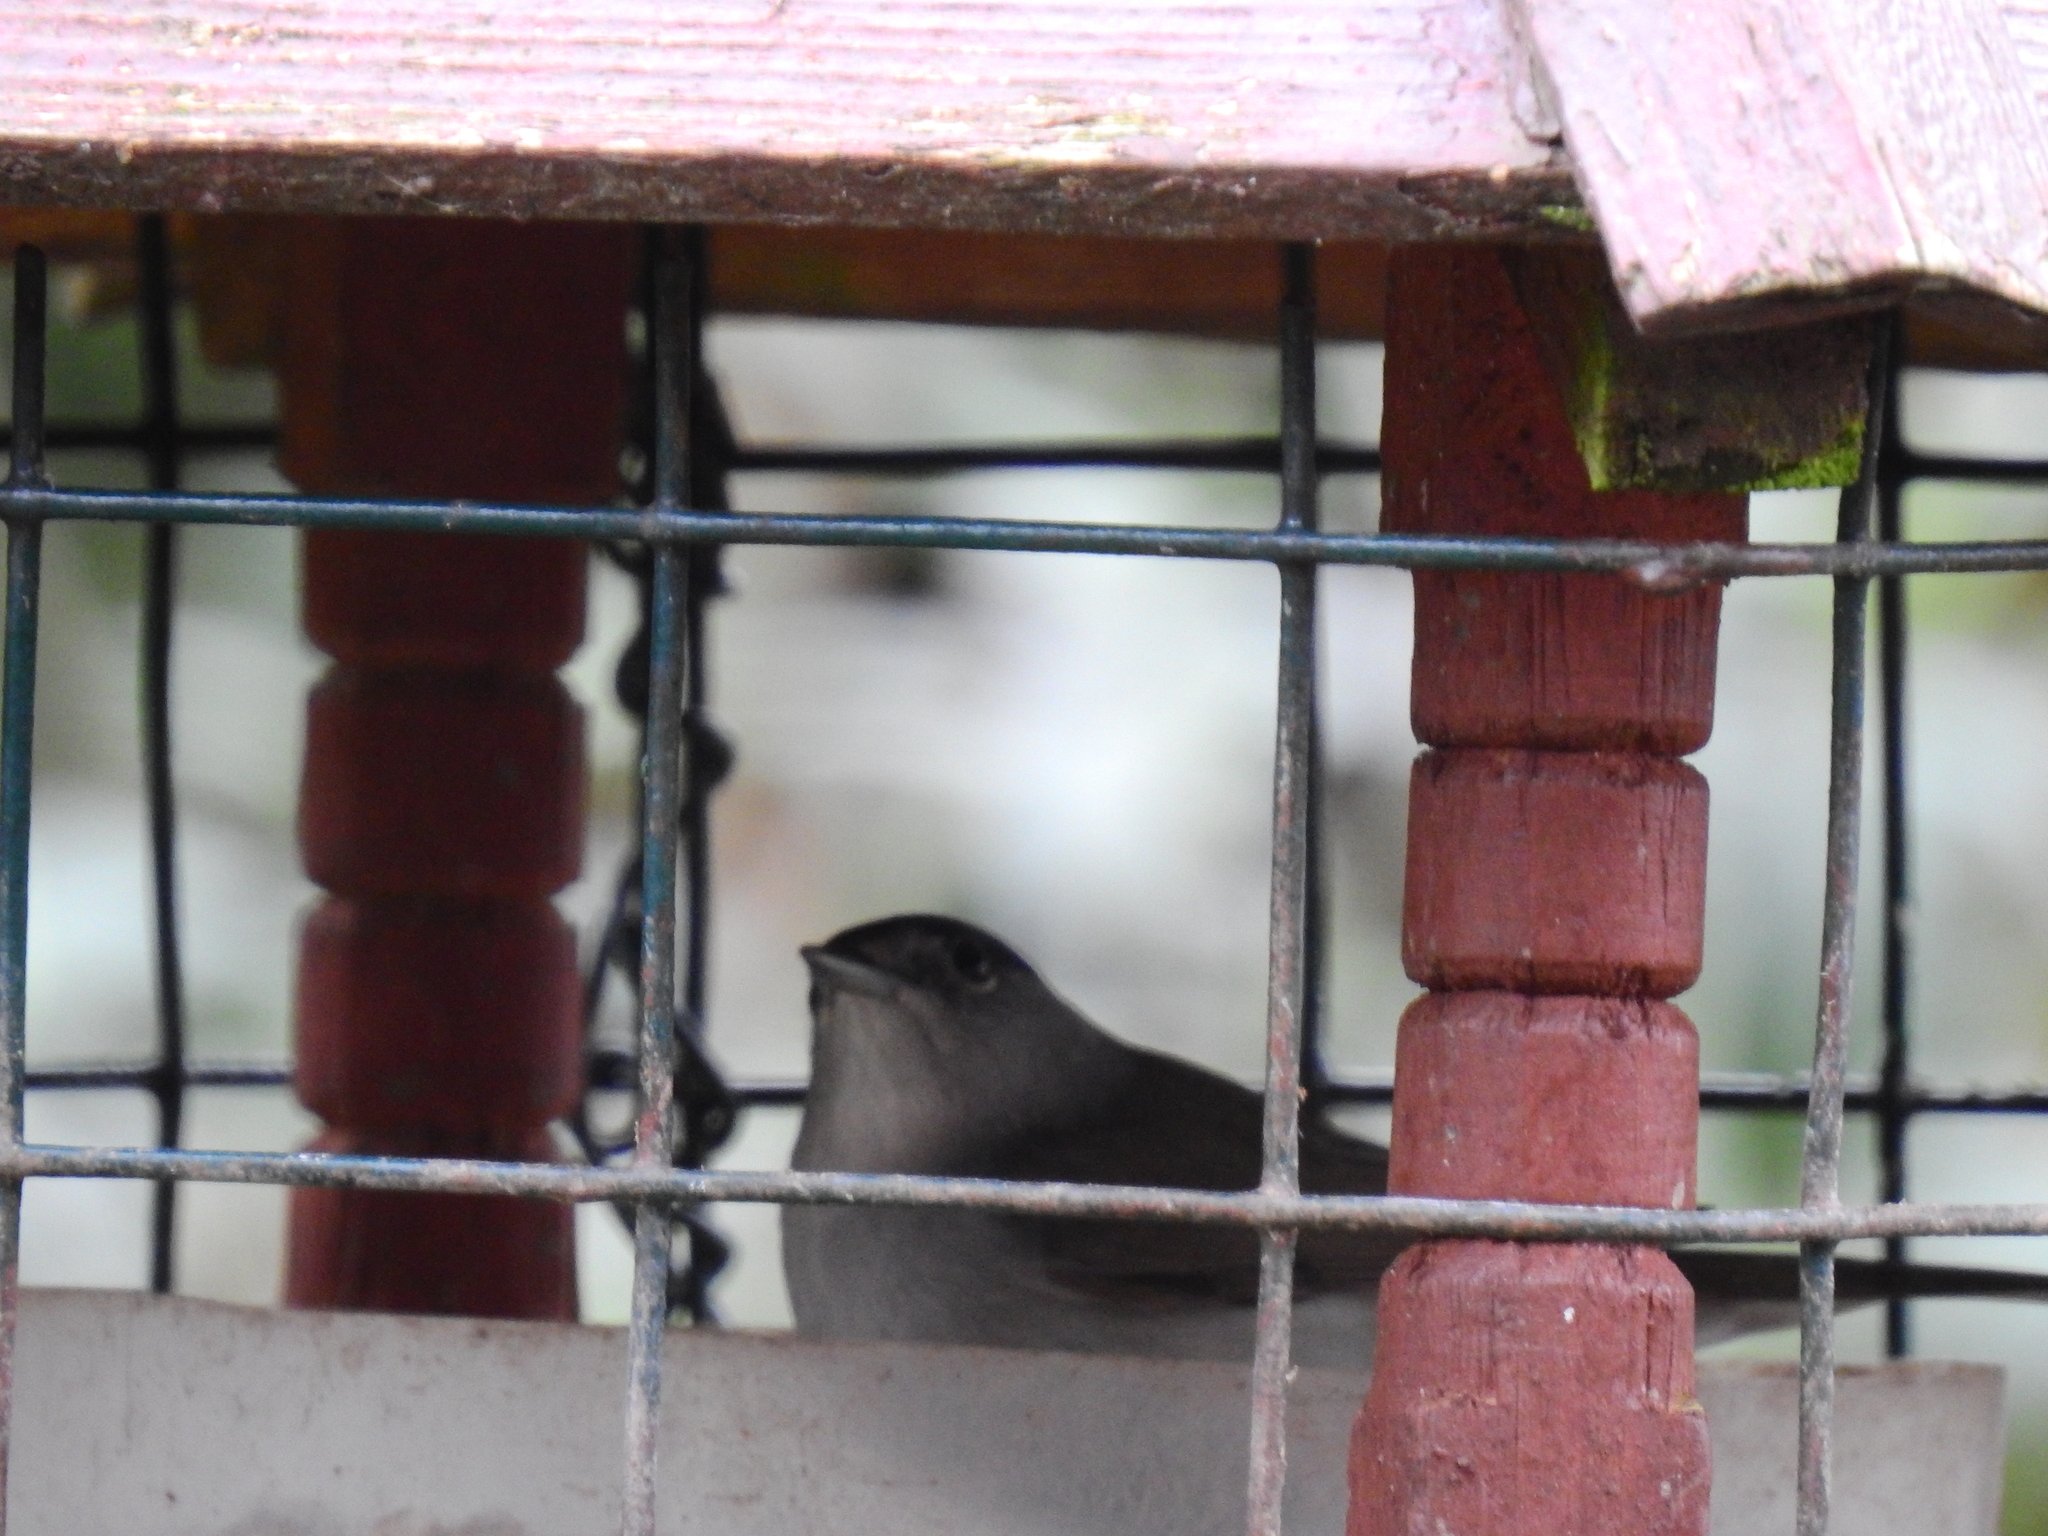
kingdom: Animalia
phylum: Chordata
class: Aves
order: Passeriformes
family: Sylviidae
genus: Sylvia
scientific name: Sylvia atricapilla
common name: Eurasian blackcap
